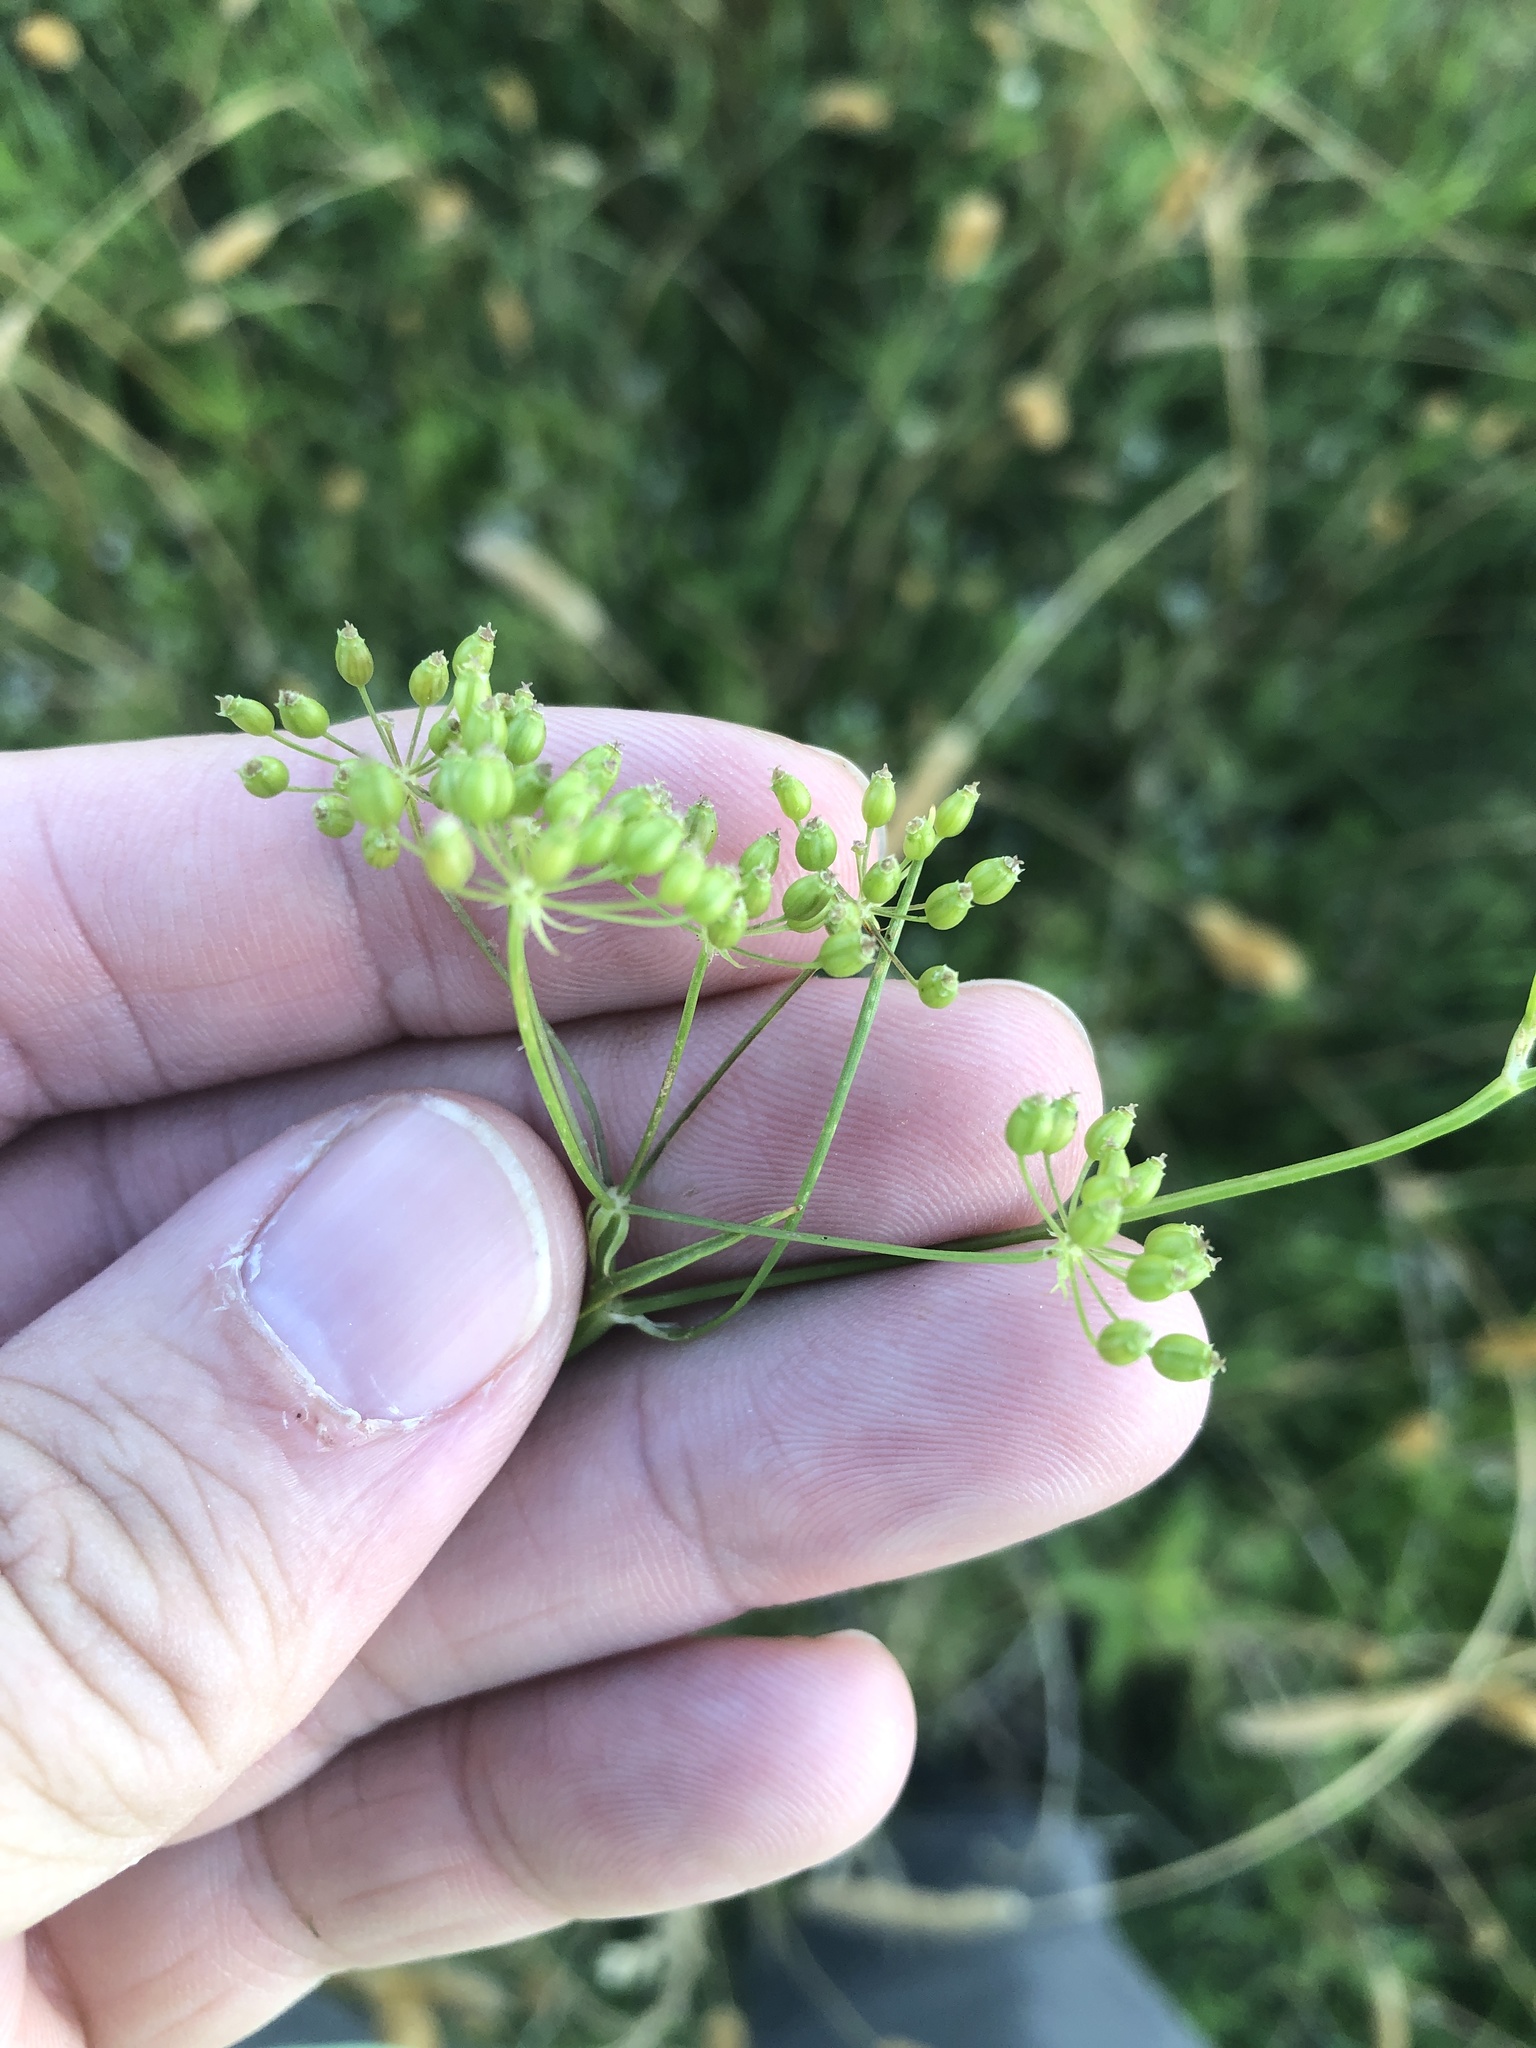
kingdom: Plantae
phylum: Tracheophyta
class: Magnoliopsida
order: Apiales
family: Apiaceae
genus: Limnosciadium
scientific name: Limnosciadium pinnatum
